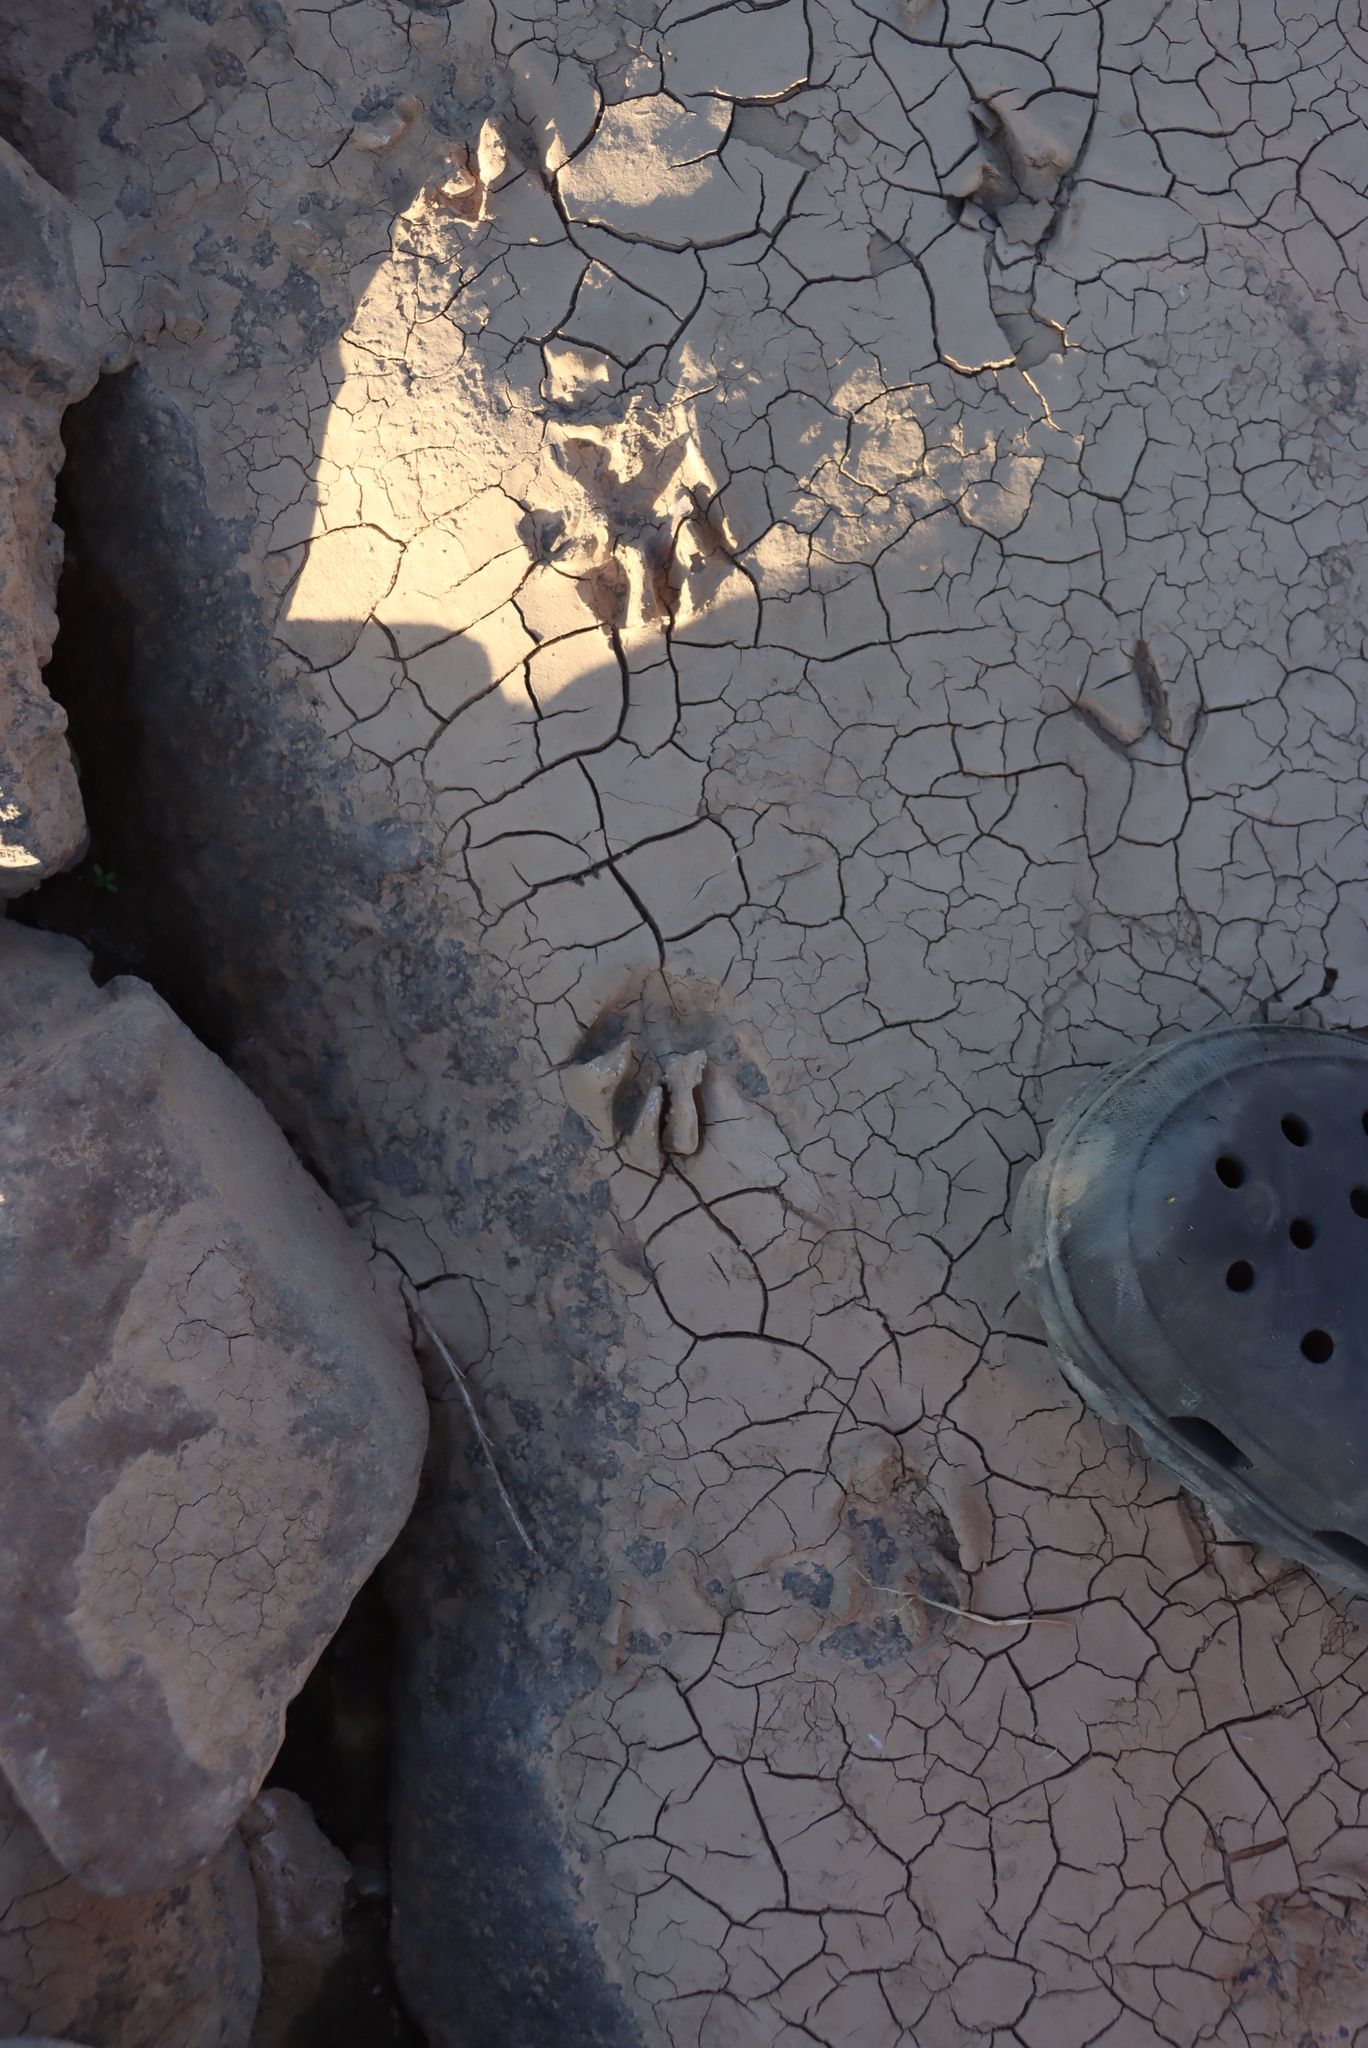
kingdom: Animalia
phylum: Chordata
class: Mammalia
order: Carnivora
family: Herpestidae
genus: Atilax
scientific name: Atilax paludinosus
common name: Marsh mongoose
